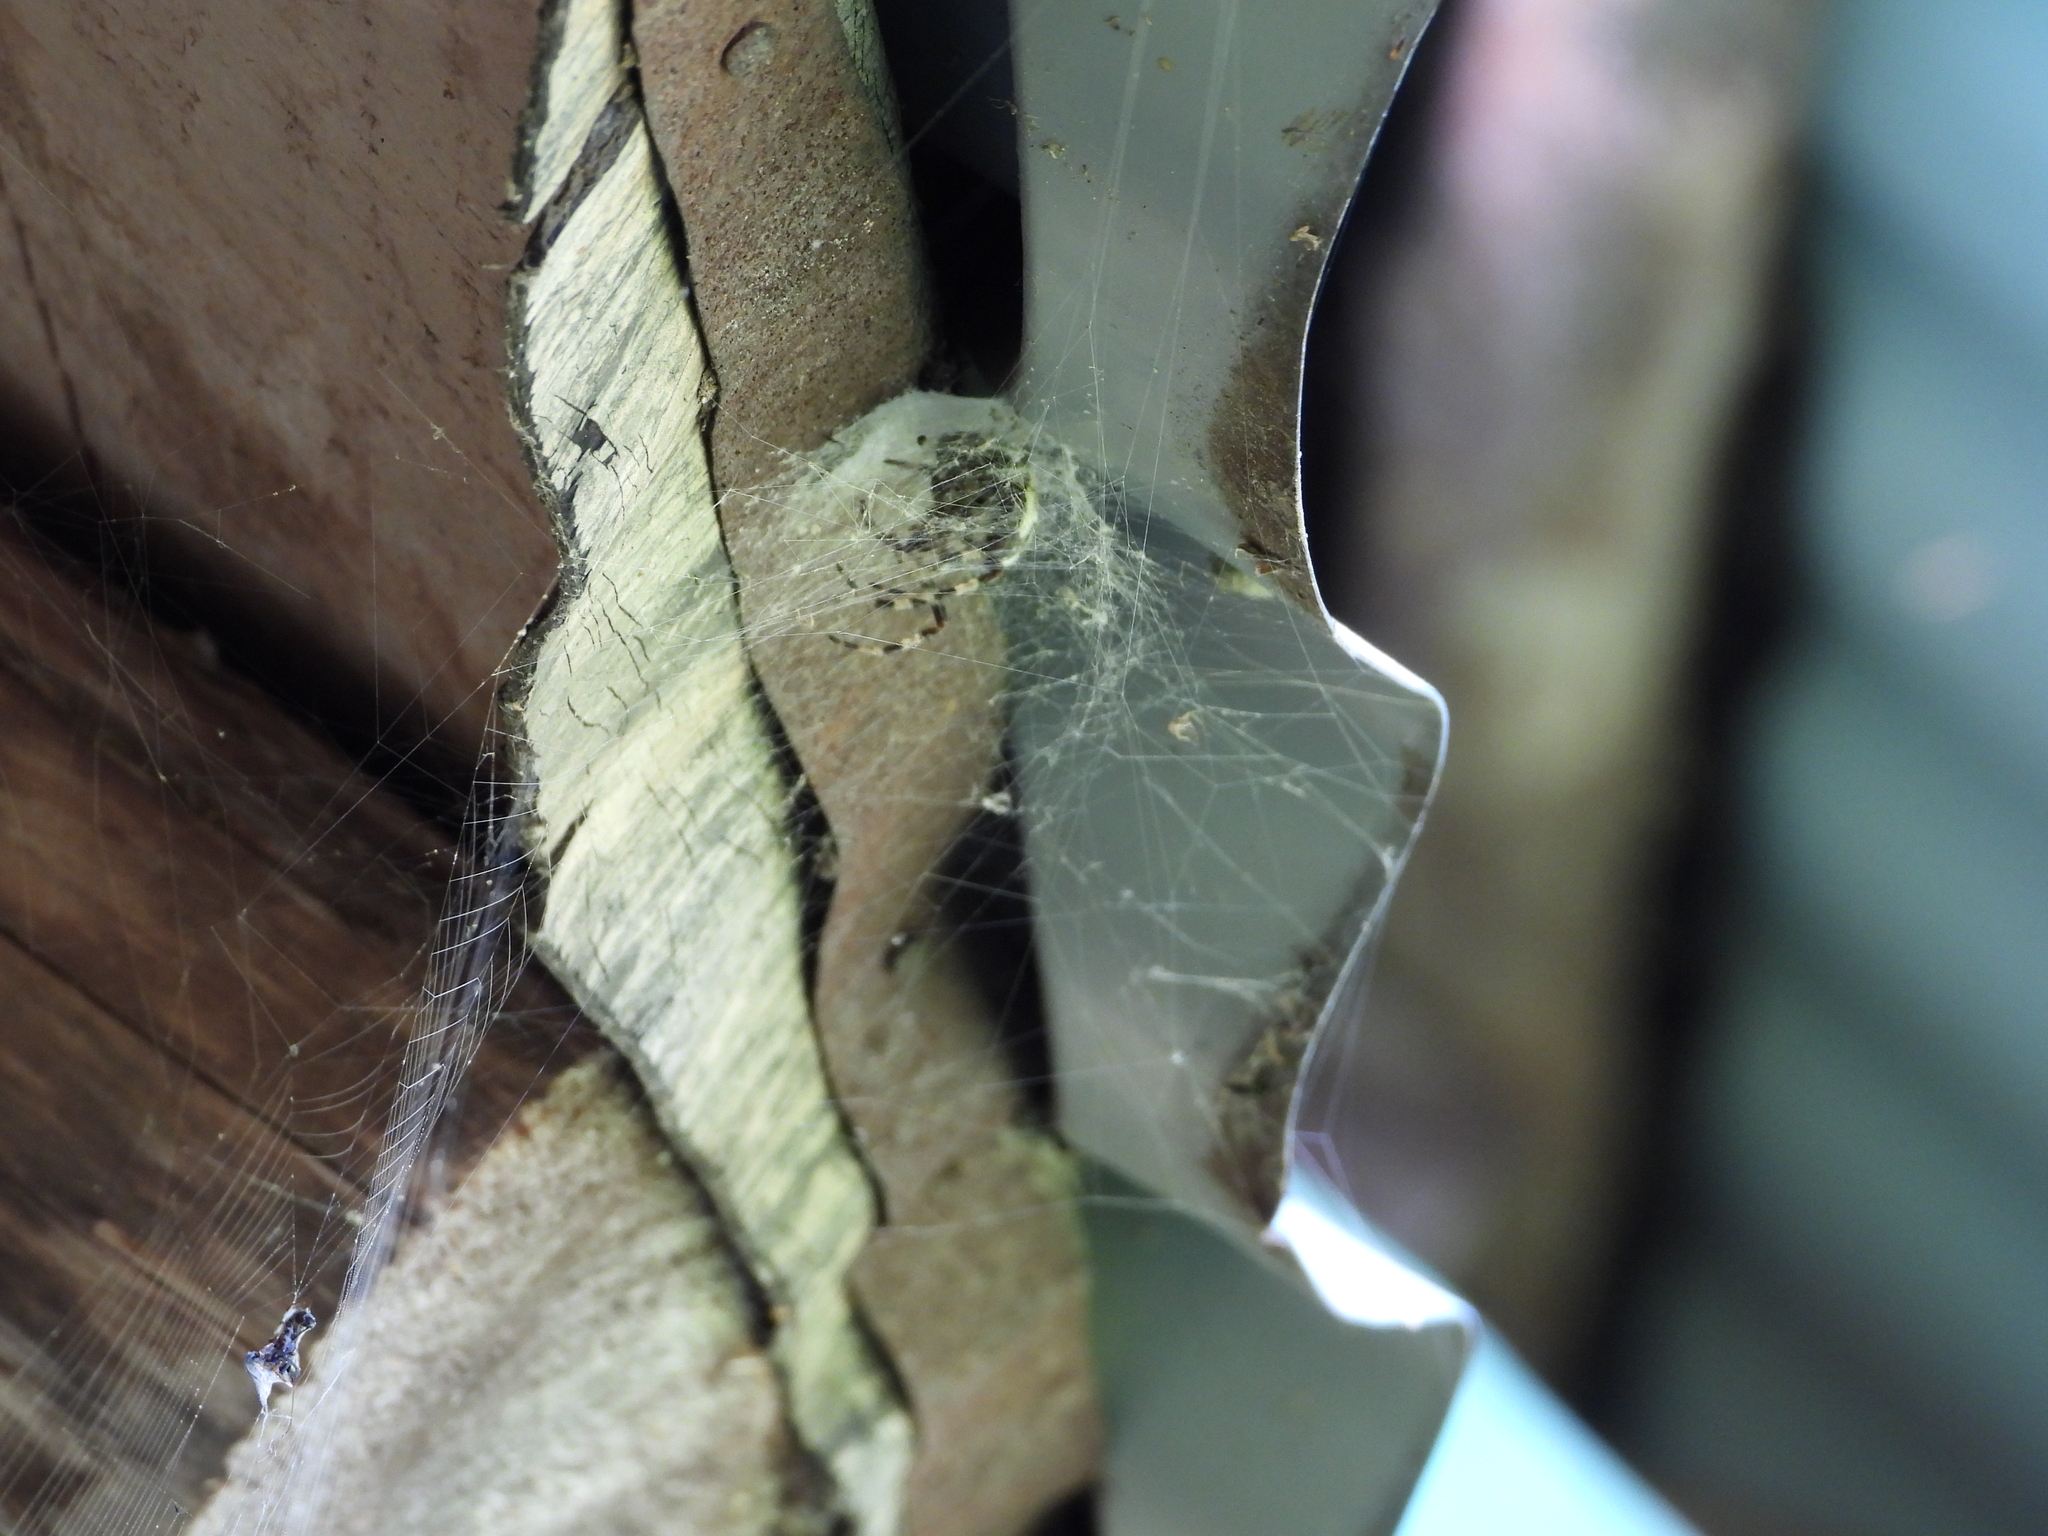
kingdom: Animalia
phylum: Arthropoda
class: Arachnida
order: Araneae
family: Araneidae
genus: Araneus
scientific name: Araneus diadematus
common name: Cross orbweaver
